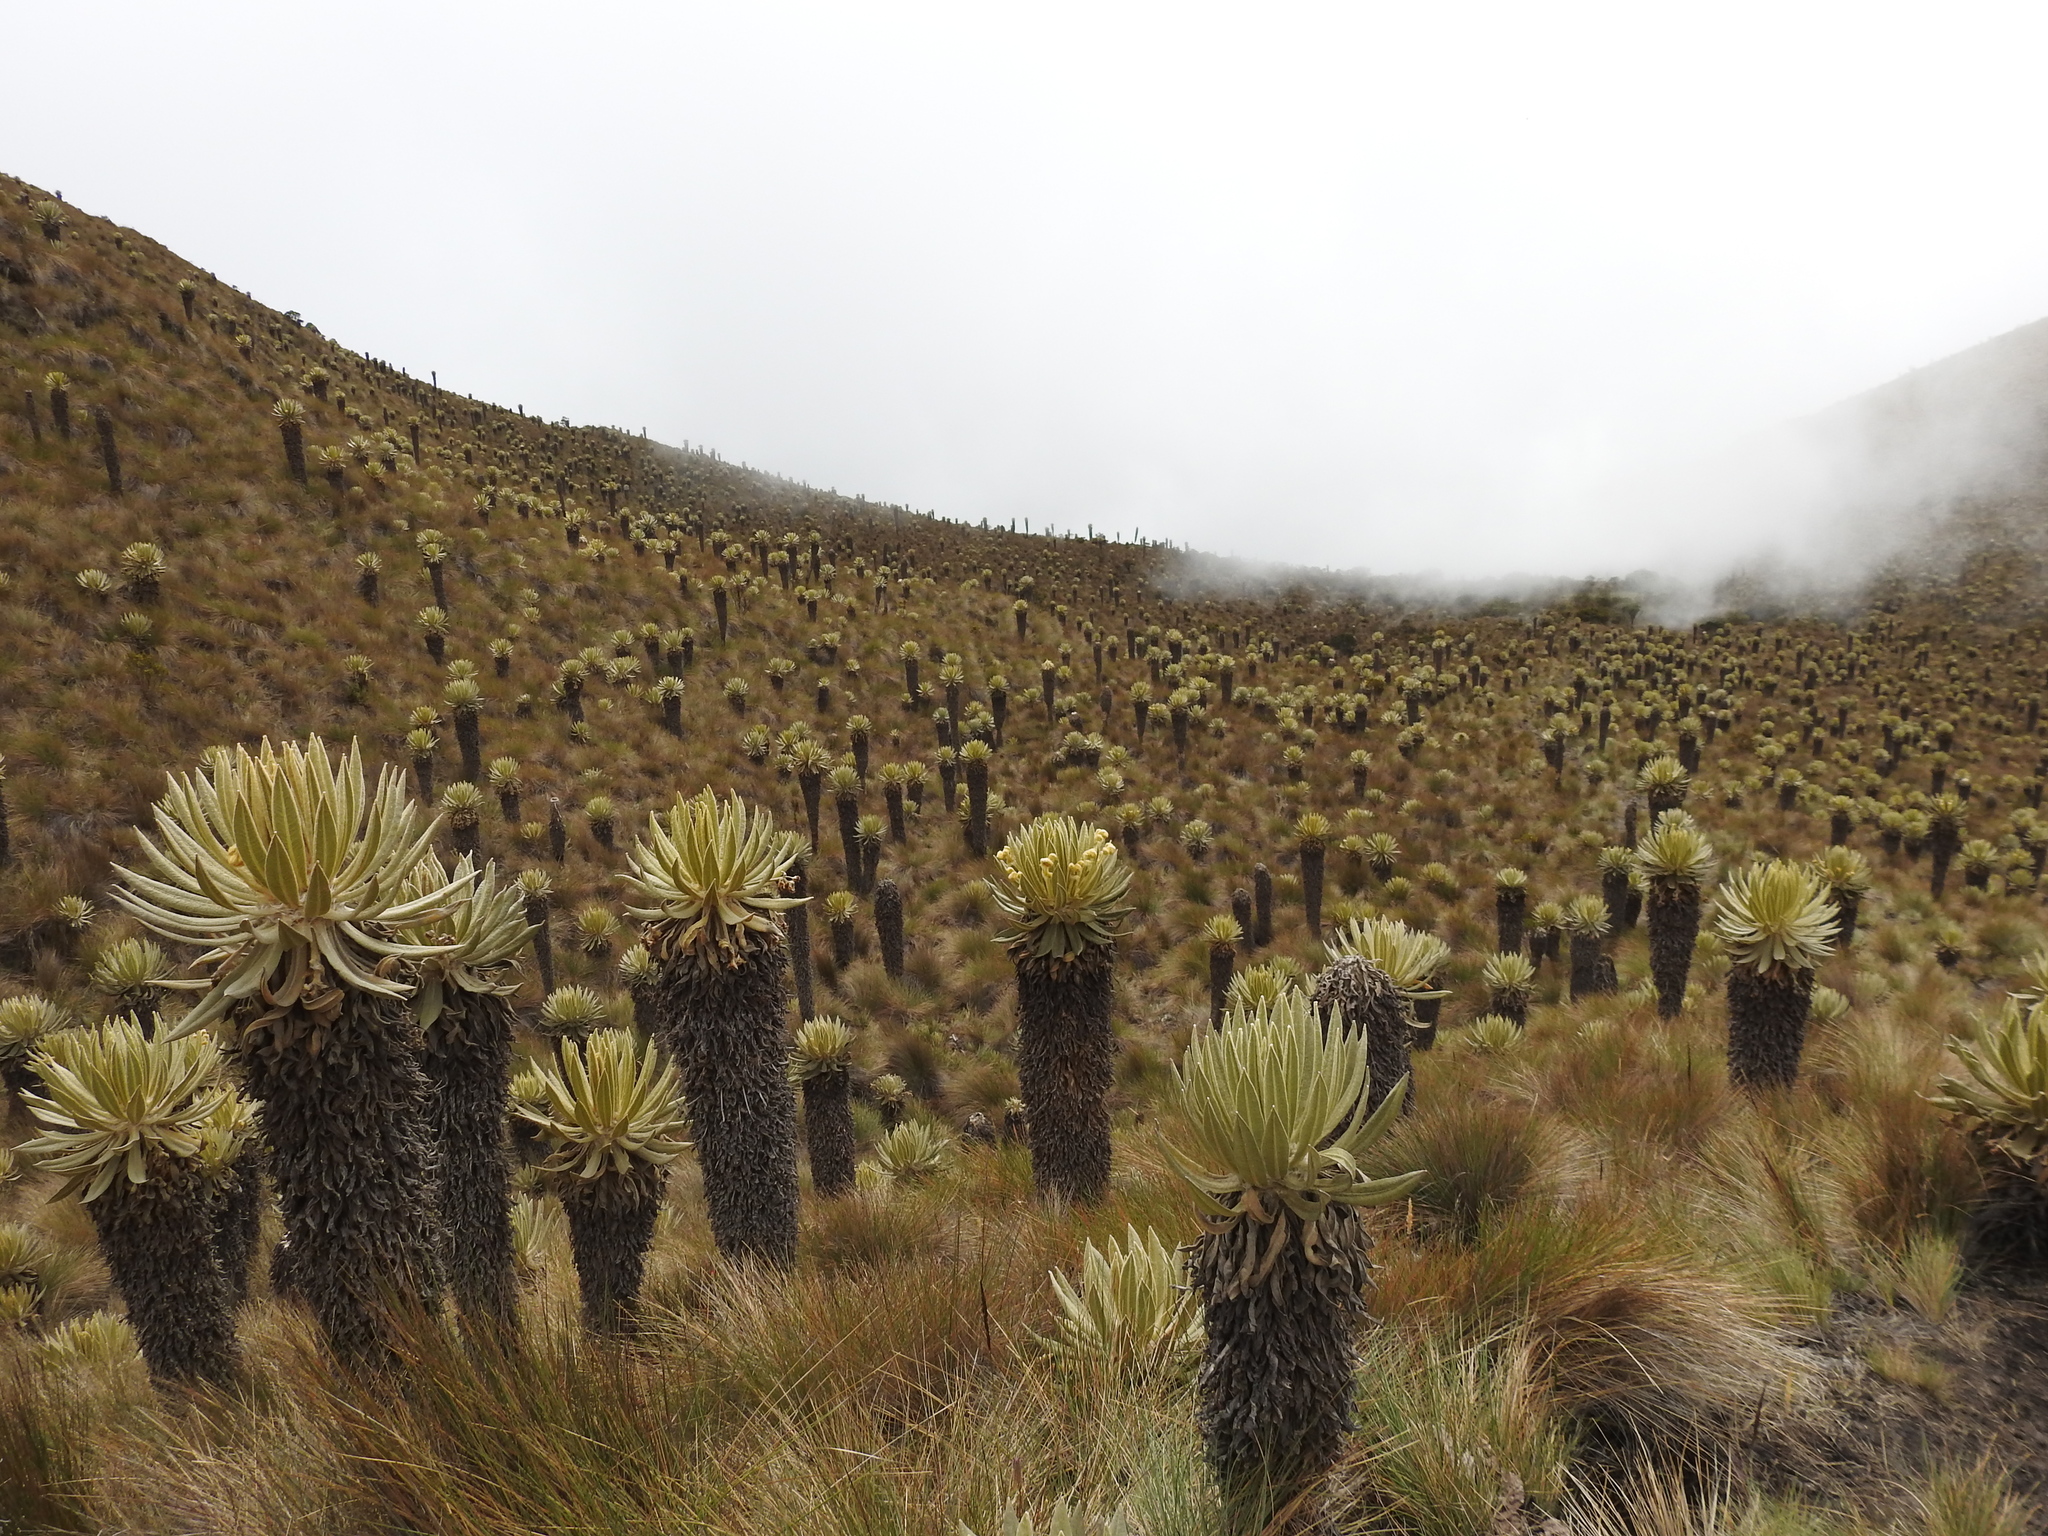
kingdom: Plantae
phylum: Tracheophyta
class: Magnoliopsida
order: Asterales
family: Asteraceae
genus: Espeletia
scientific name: Espeletia hartwegiana
